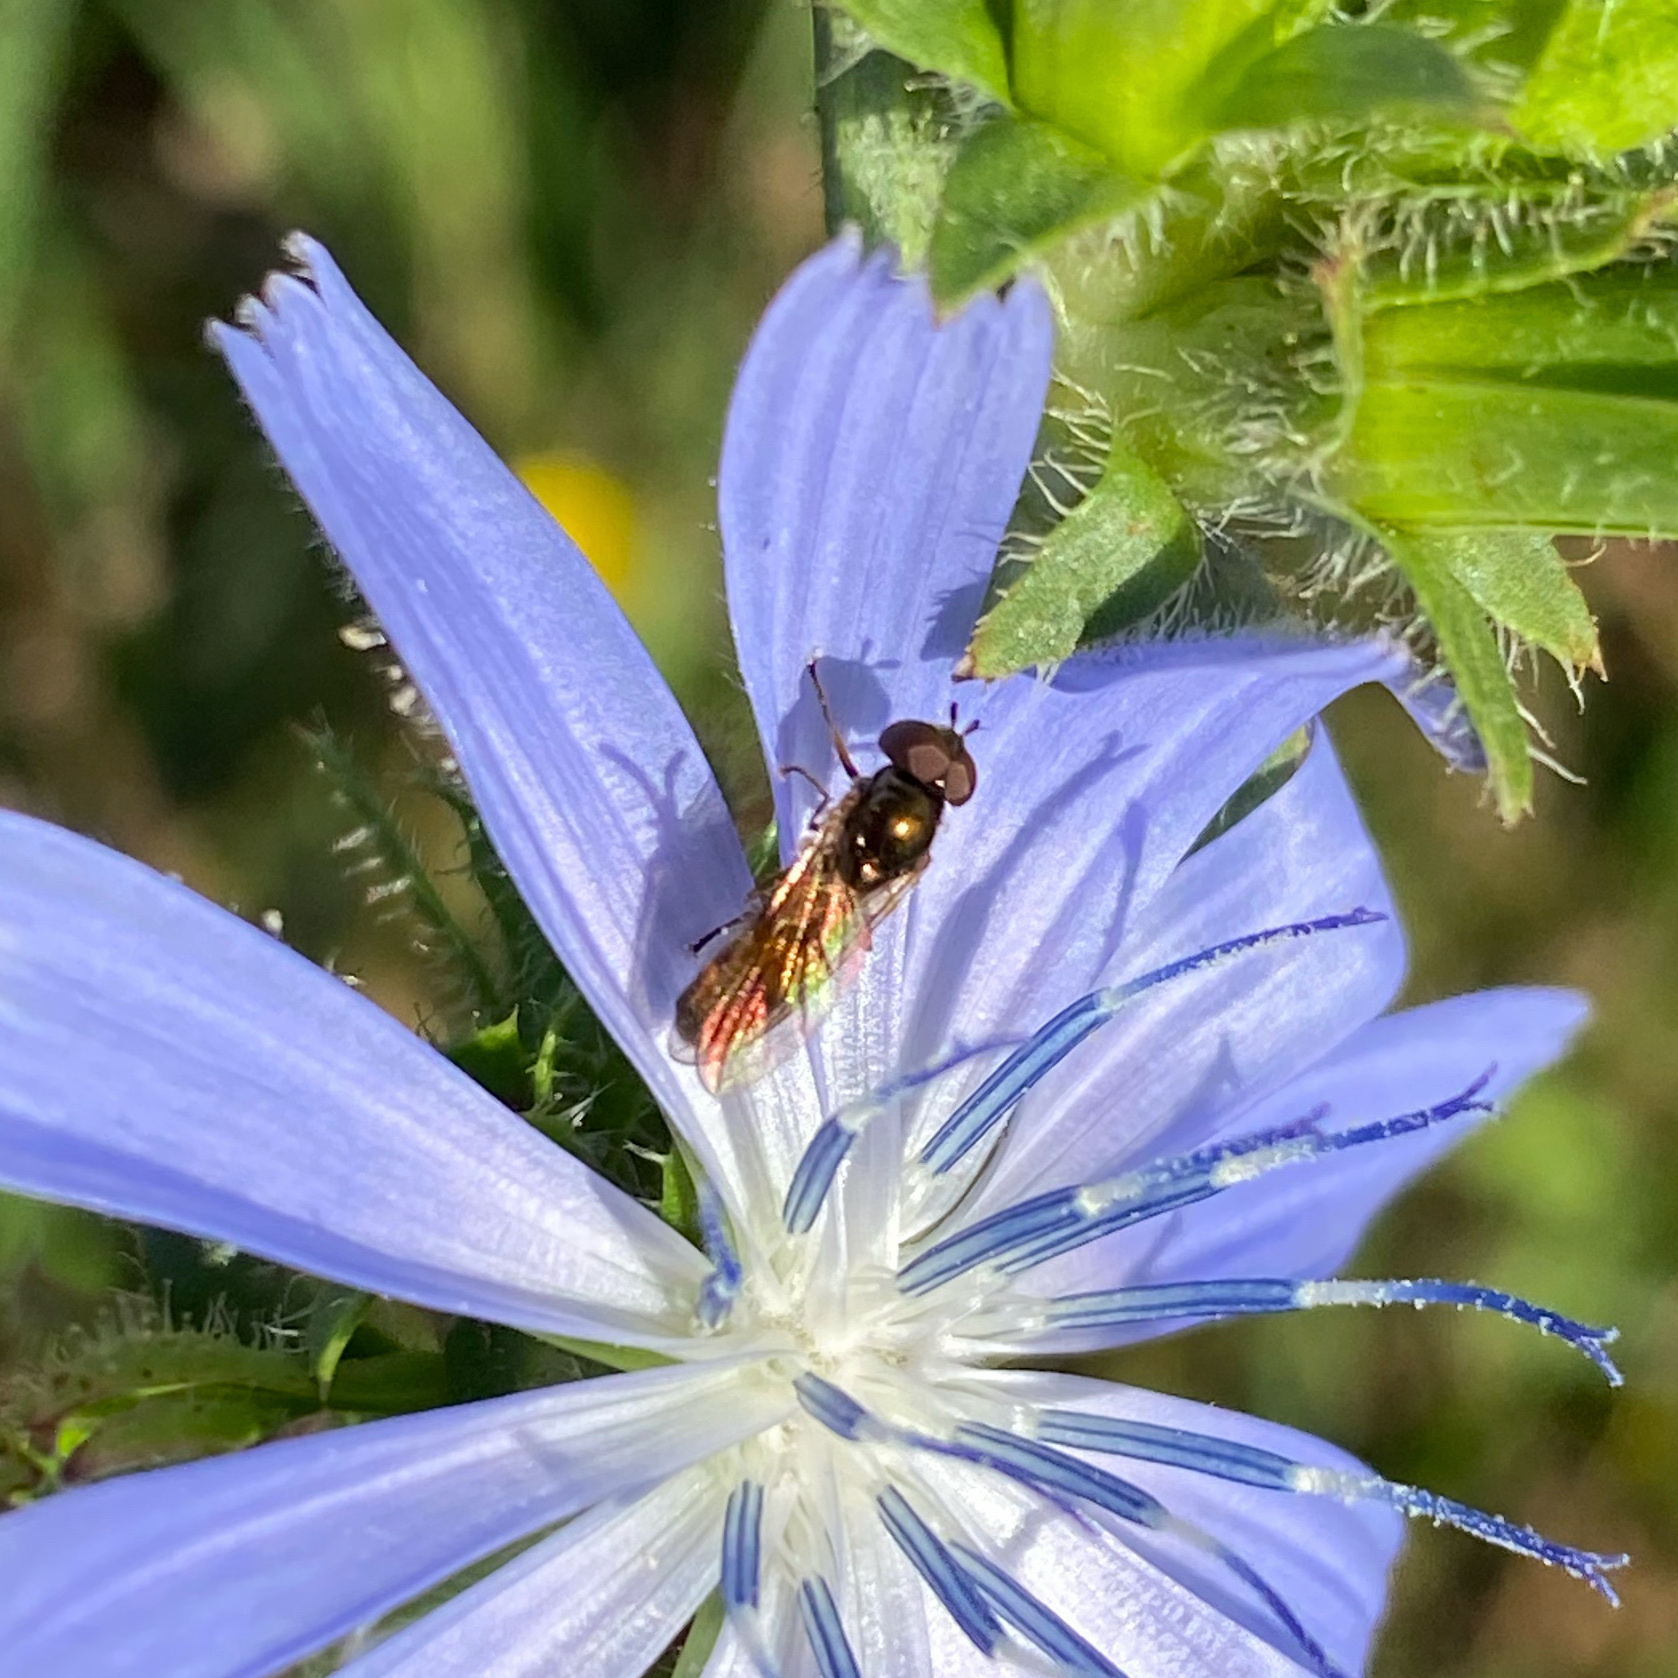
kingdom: Animalia
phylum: Arthropoda
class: Insecta
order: Diptera
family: Syrphidae
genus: Melanostoma
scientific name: Melanostoma fasciatum
